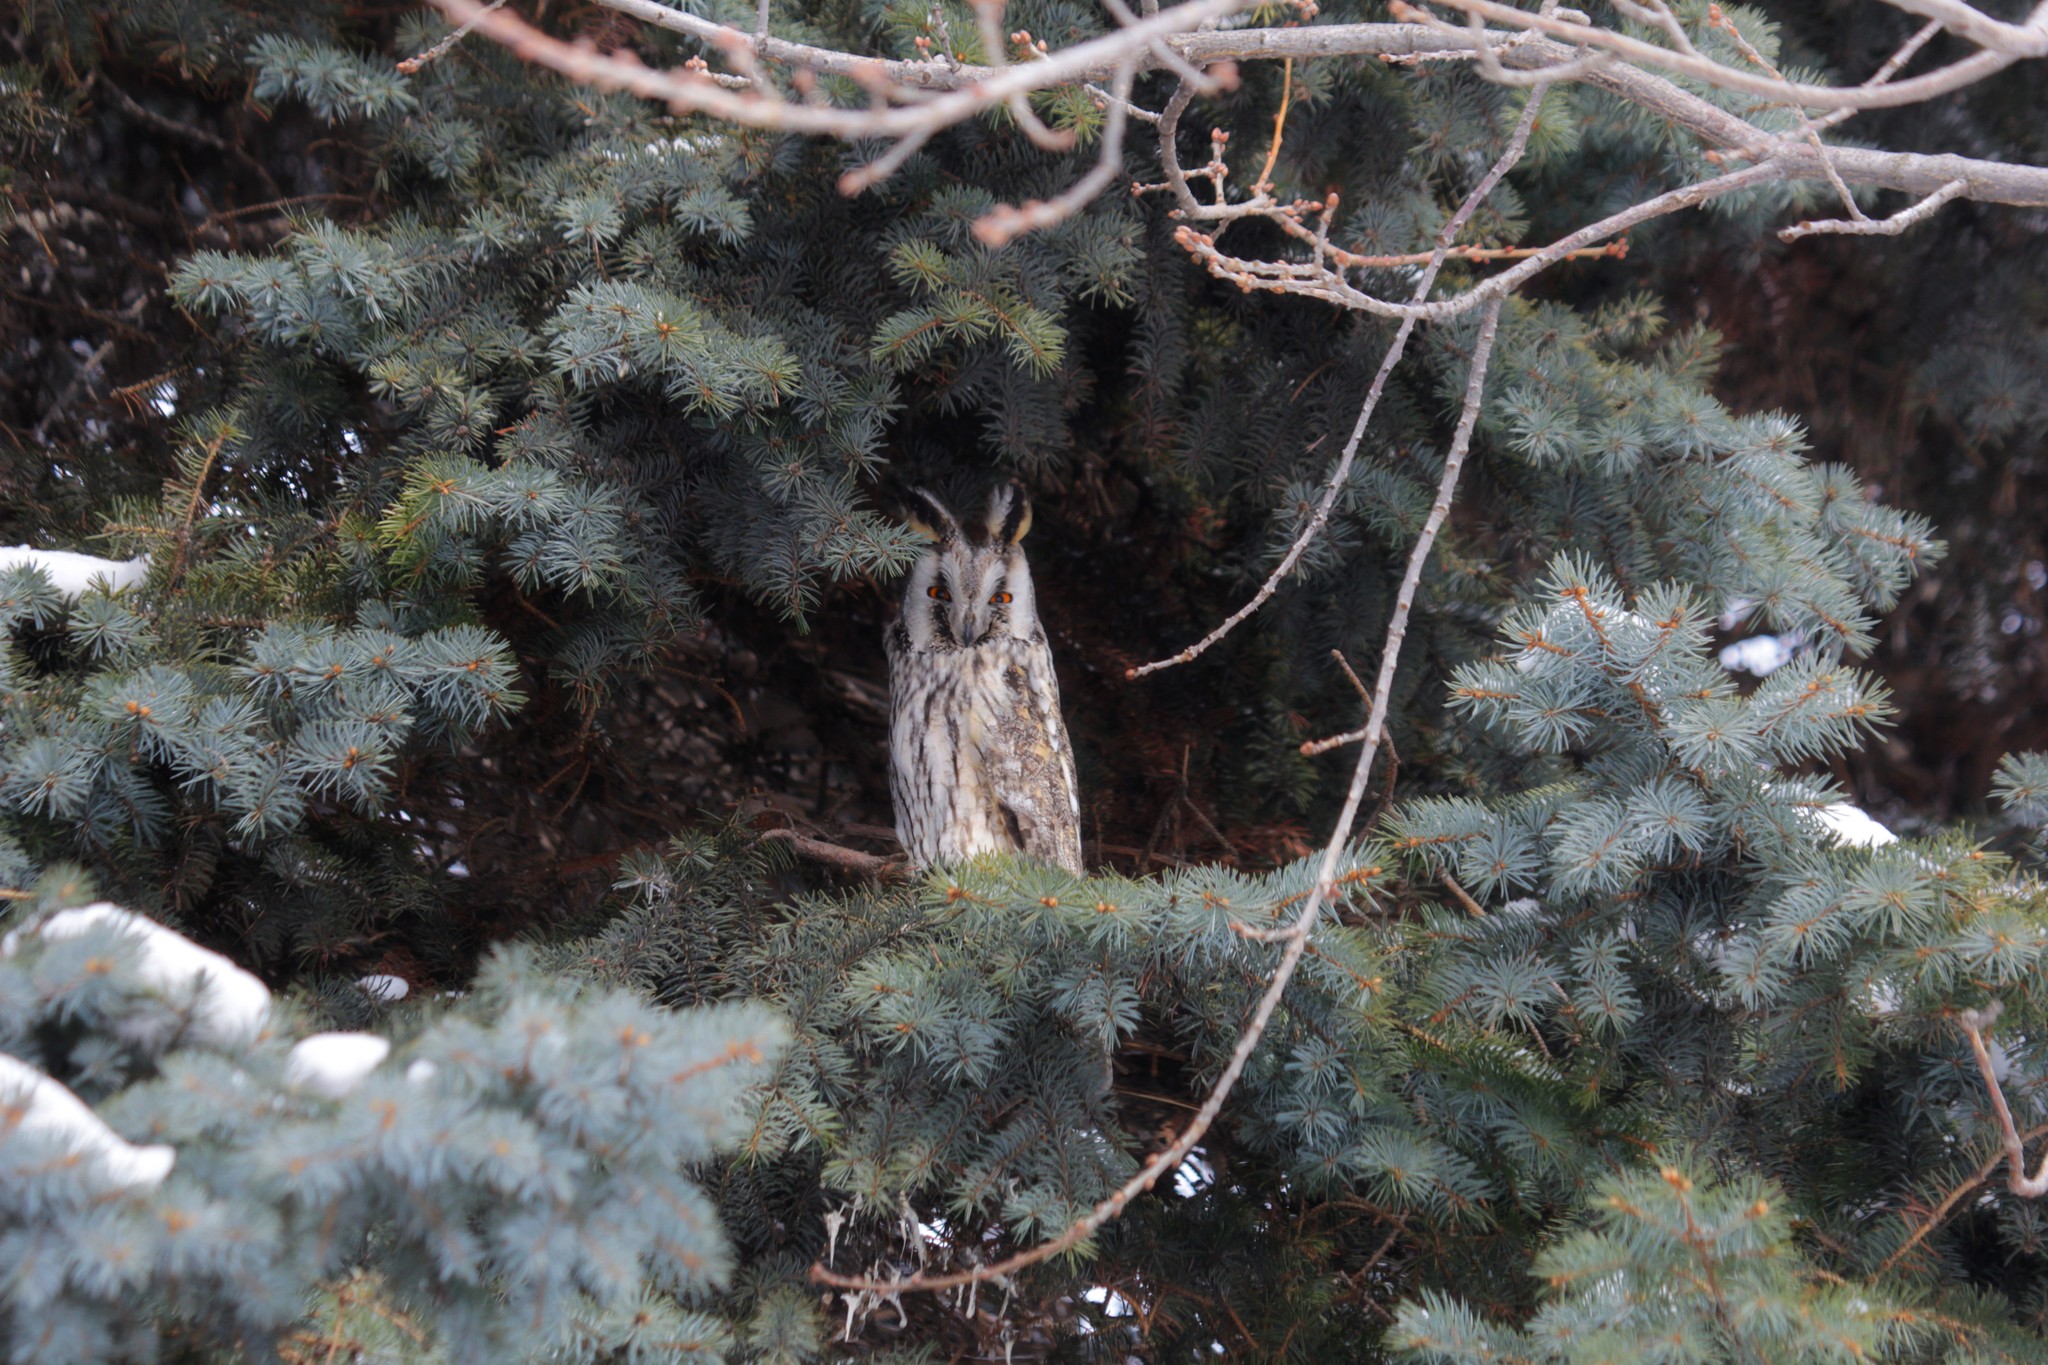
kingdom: Animalia
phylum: Chordata
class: Aves
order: Strigiformes
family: Strigidae
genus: Asio
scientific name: Asio otus
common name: Long-eared owl
